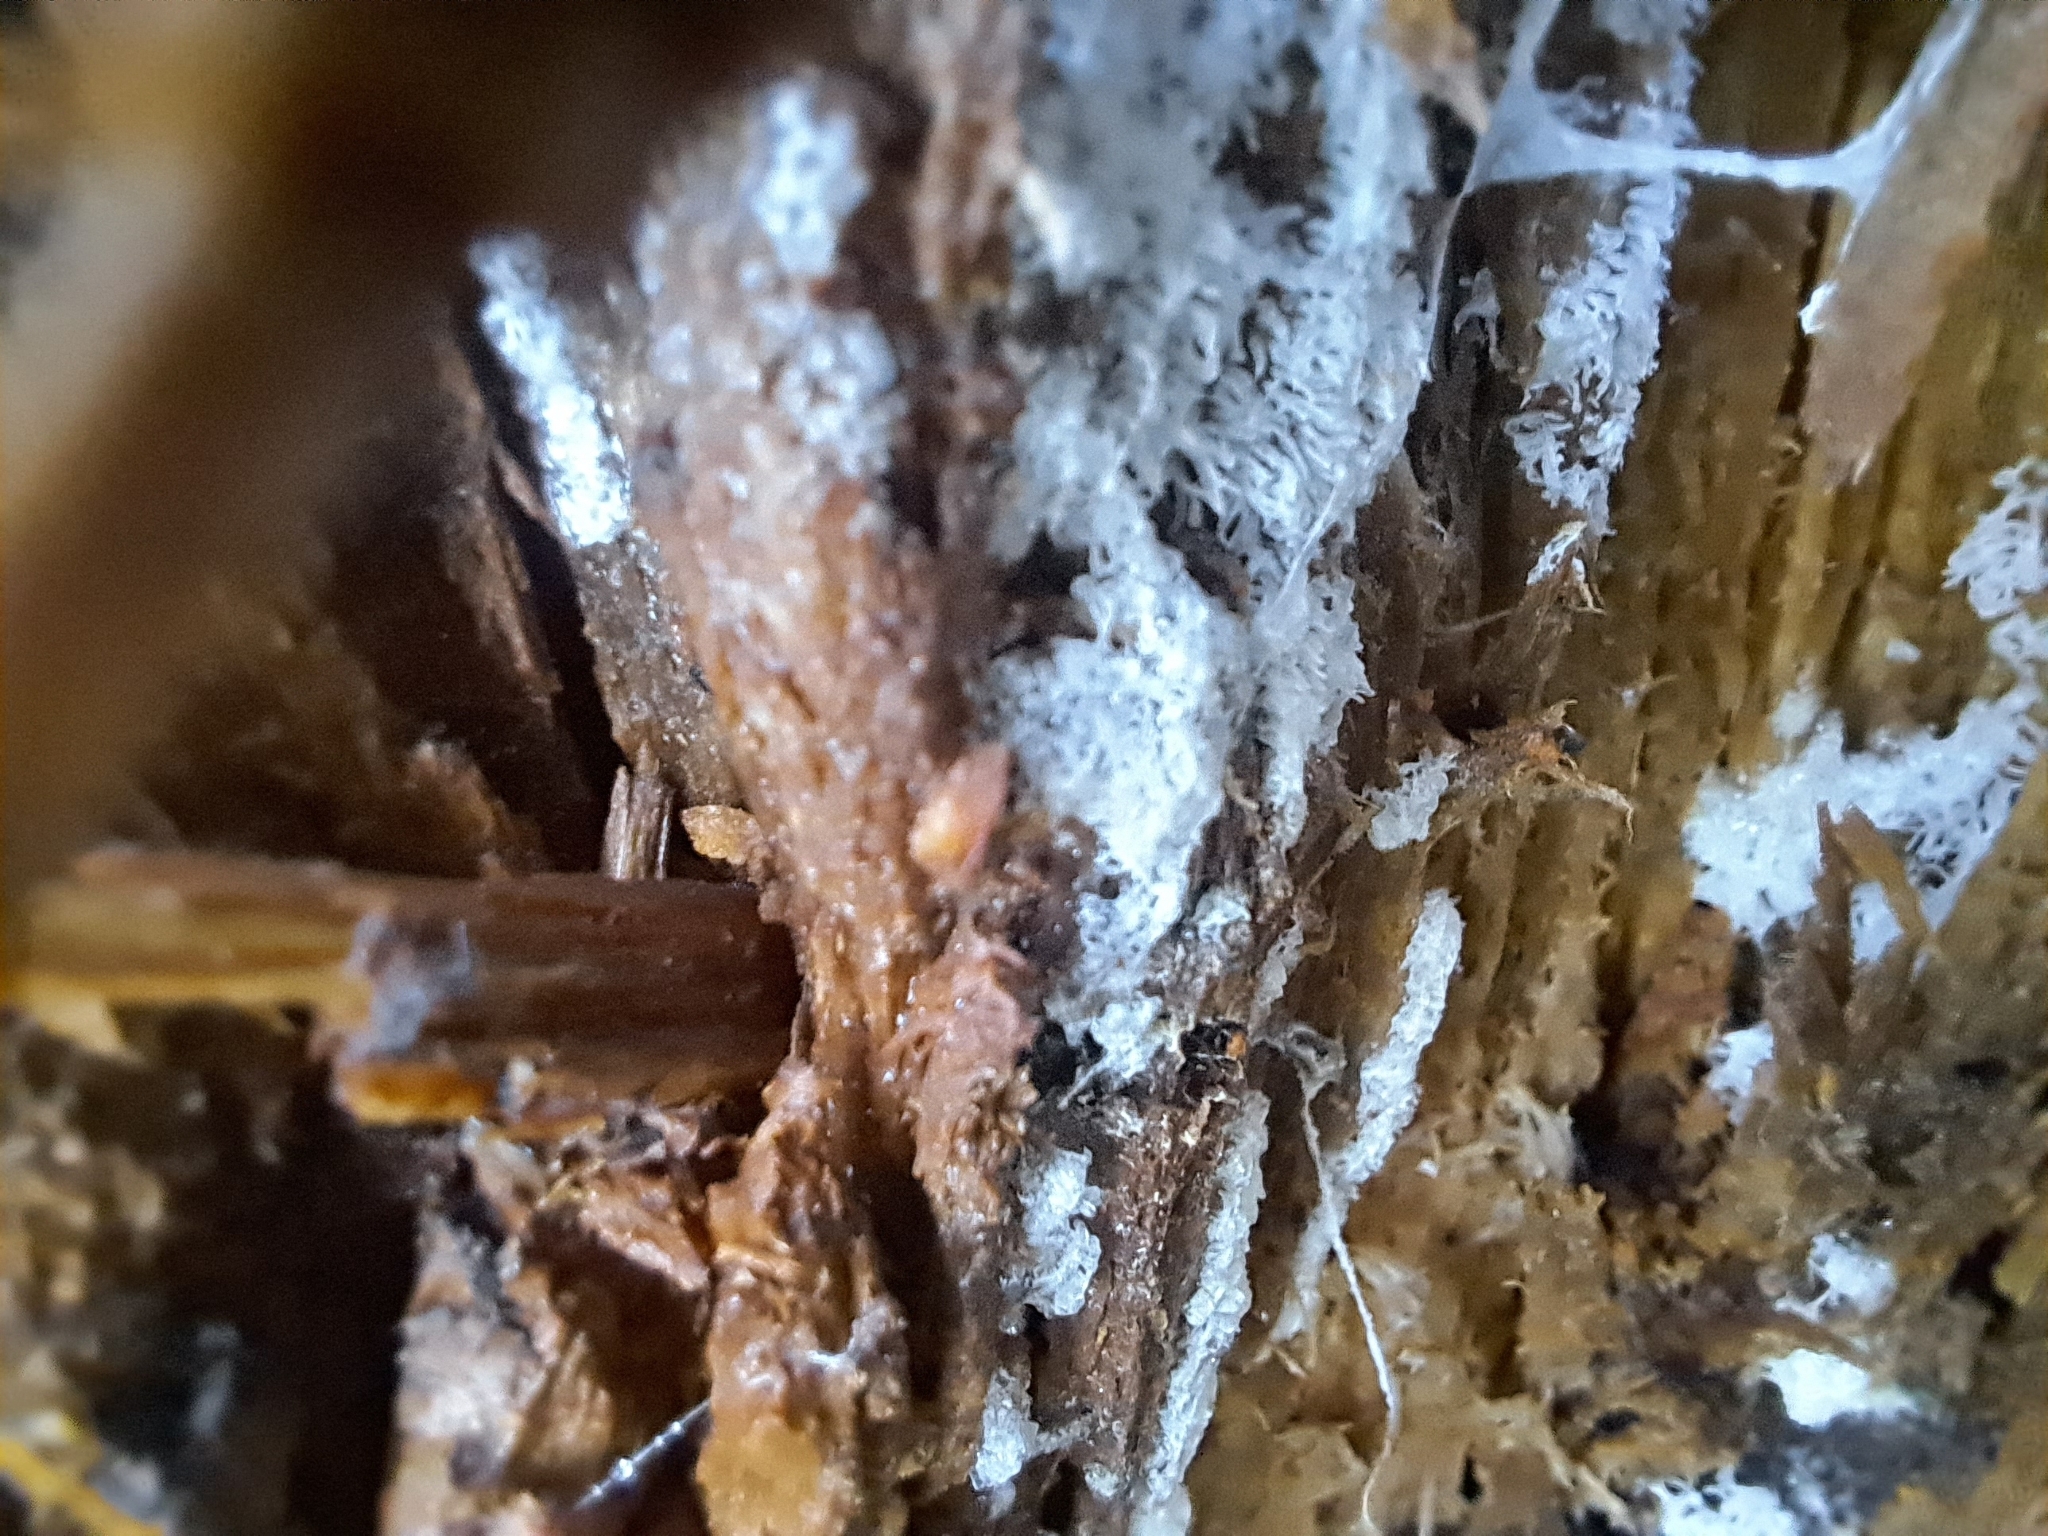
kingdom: Protozoa
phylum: Mycetozoa
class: Protosteliomycetes
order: Ceratiomyxales
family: Ceratiomyxaceae
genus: Ceratiomyxa
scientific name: Ceratiomyxa fruticulosa
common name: Honeycomb coral slime mold
